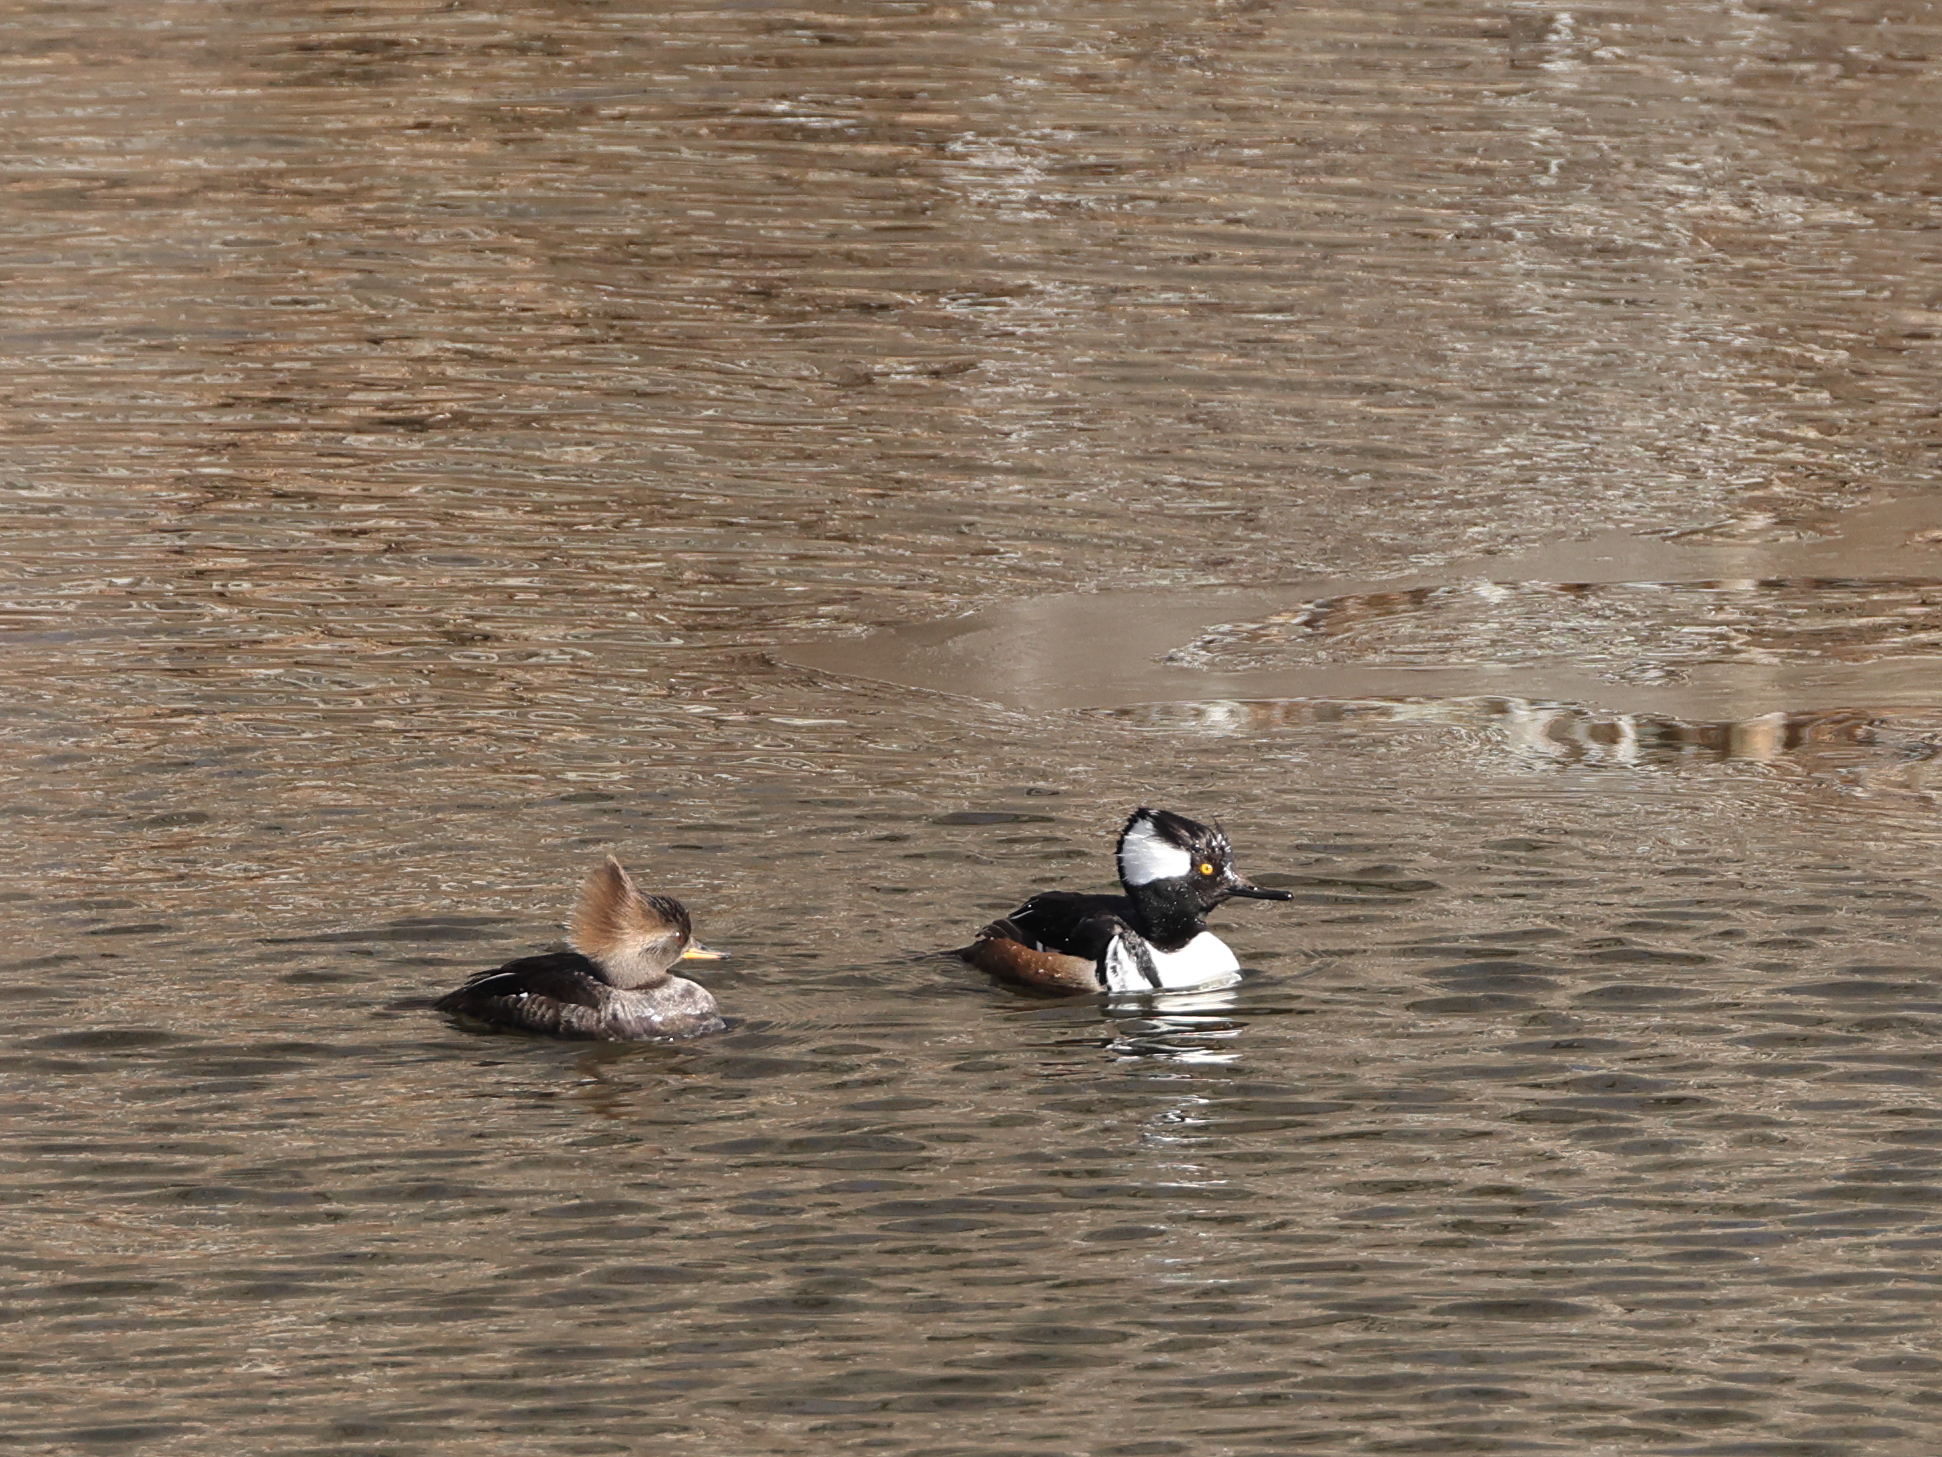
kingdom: Animalia
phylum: Chordata
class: Aves
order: Anseriformes
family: Anatidae
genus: Lophodytes
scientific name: Lophodytes cucullatus
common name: Hooded merganser
